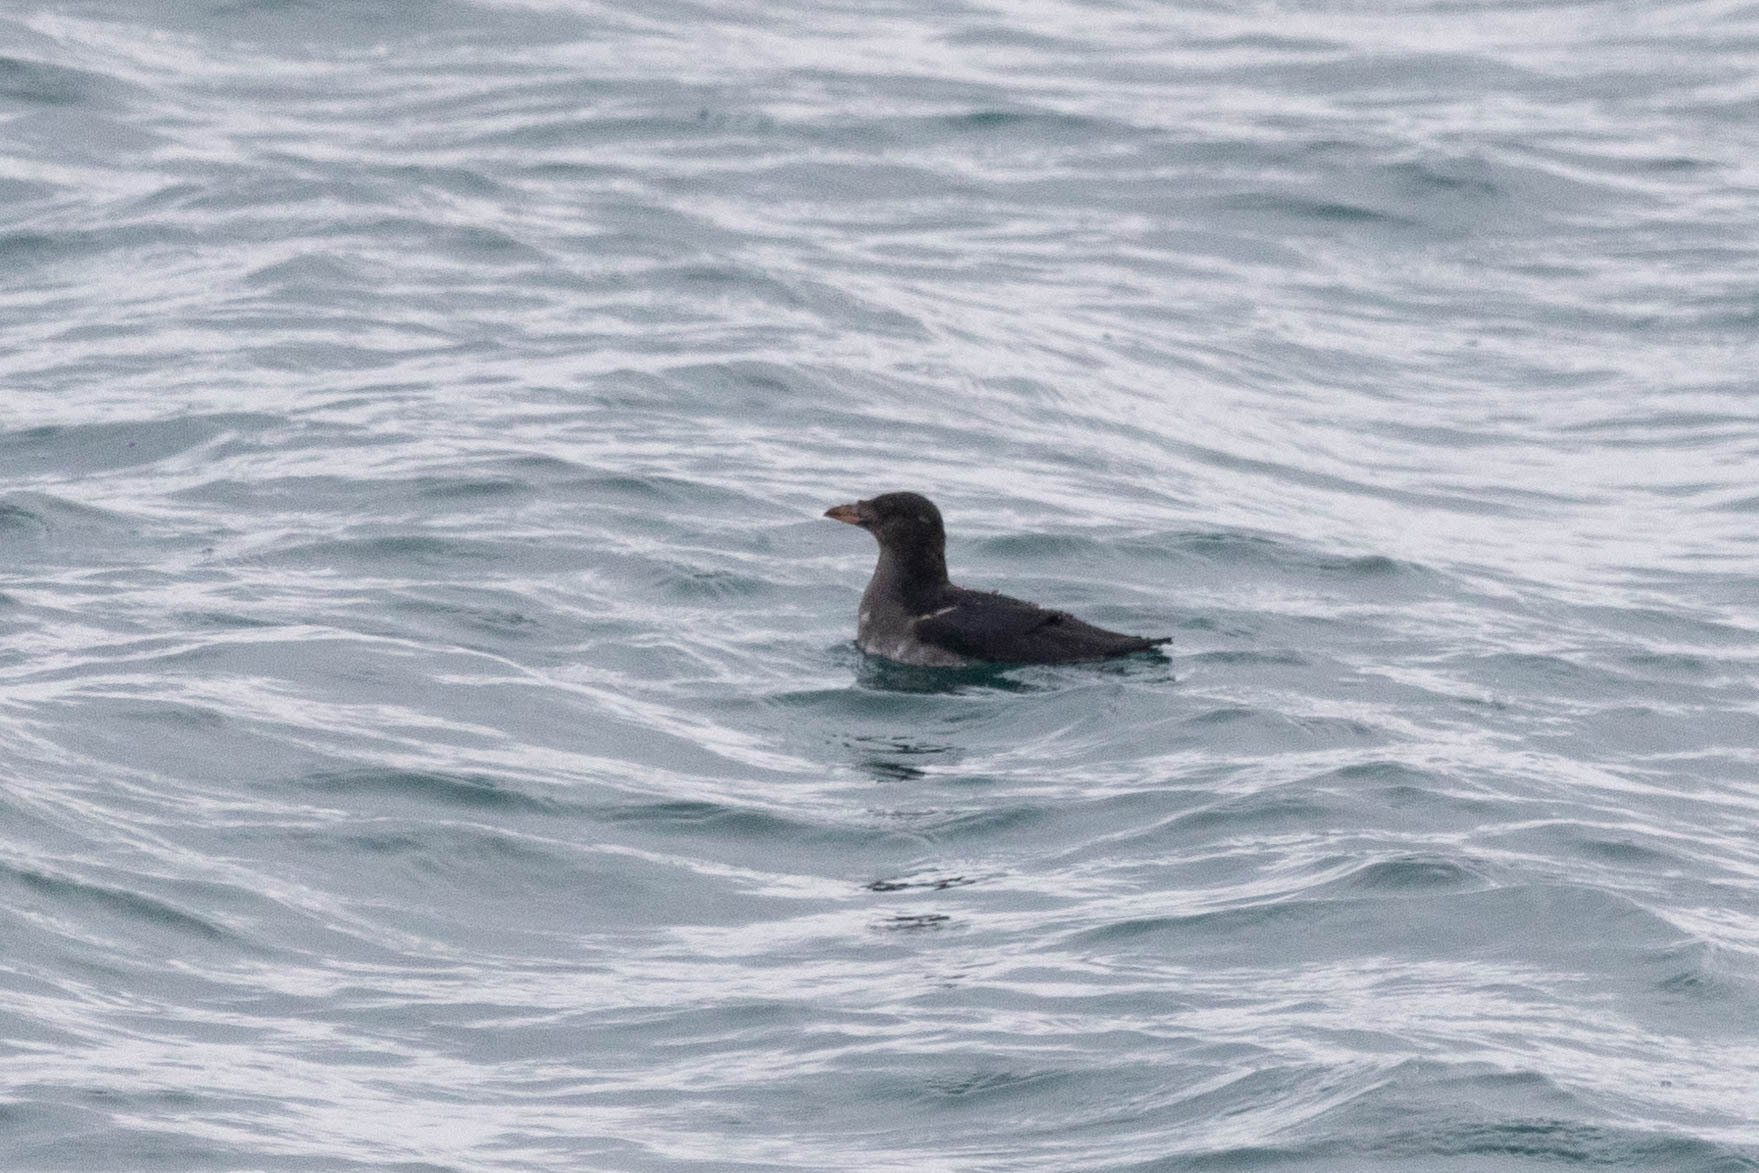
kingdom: Animalia
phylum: Chordata
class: Aves
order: Charadriiformes
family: Alcidae
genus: Cerorhinca
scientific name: Cerorhinca monocerata
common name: Rhinoceros auklet
